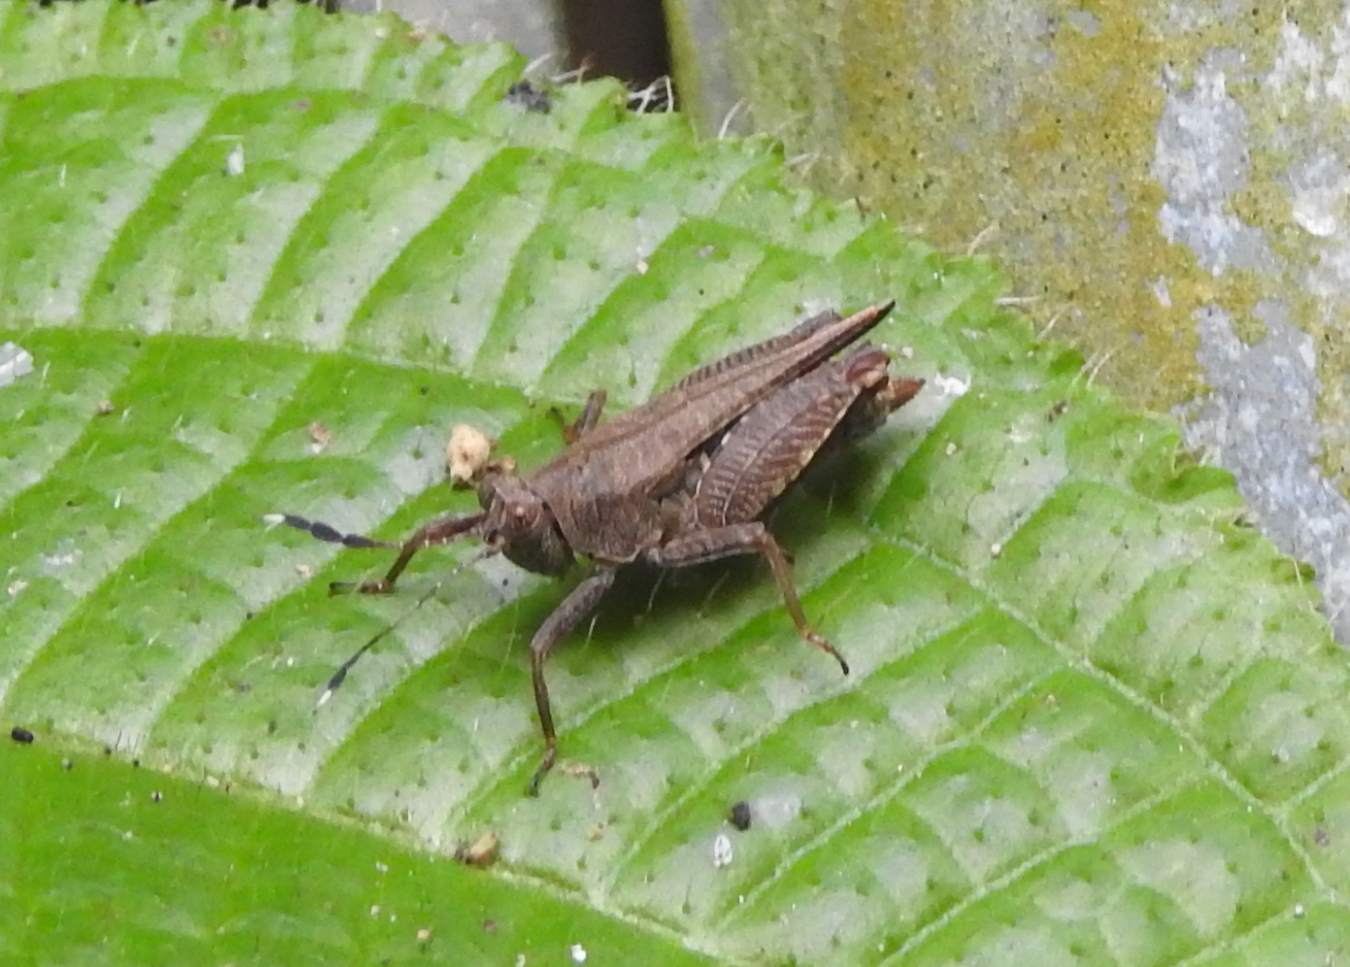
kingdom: Animalia
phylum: Arthropoda
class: Insecta
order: Orthoptera
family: Tetrigidae
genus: Phaesticus
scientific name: Phaesticus mellerborgi
